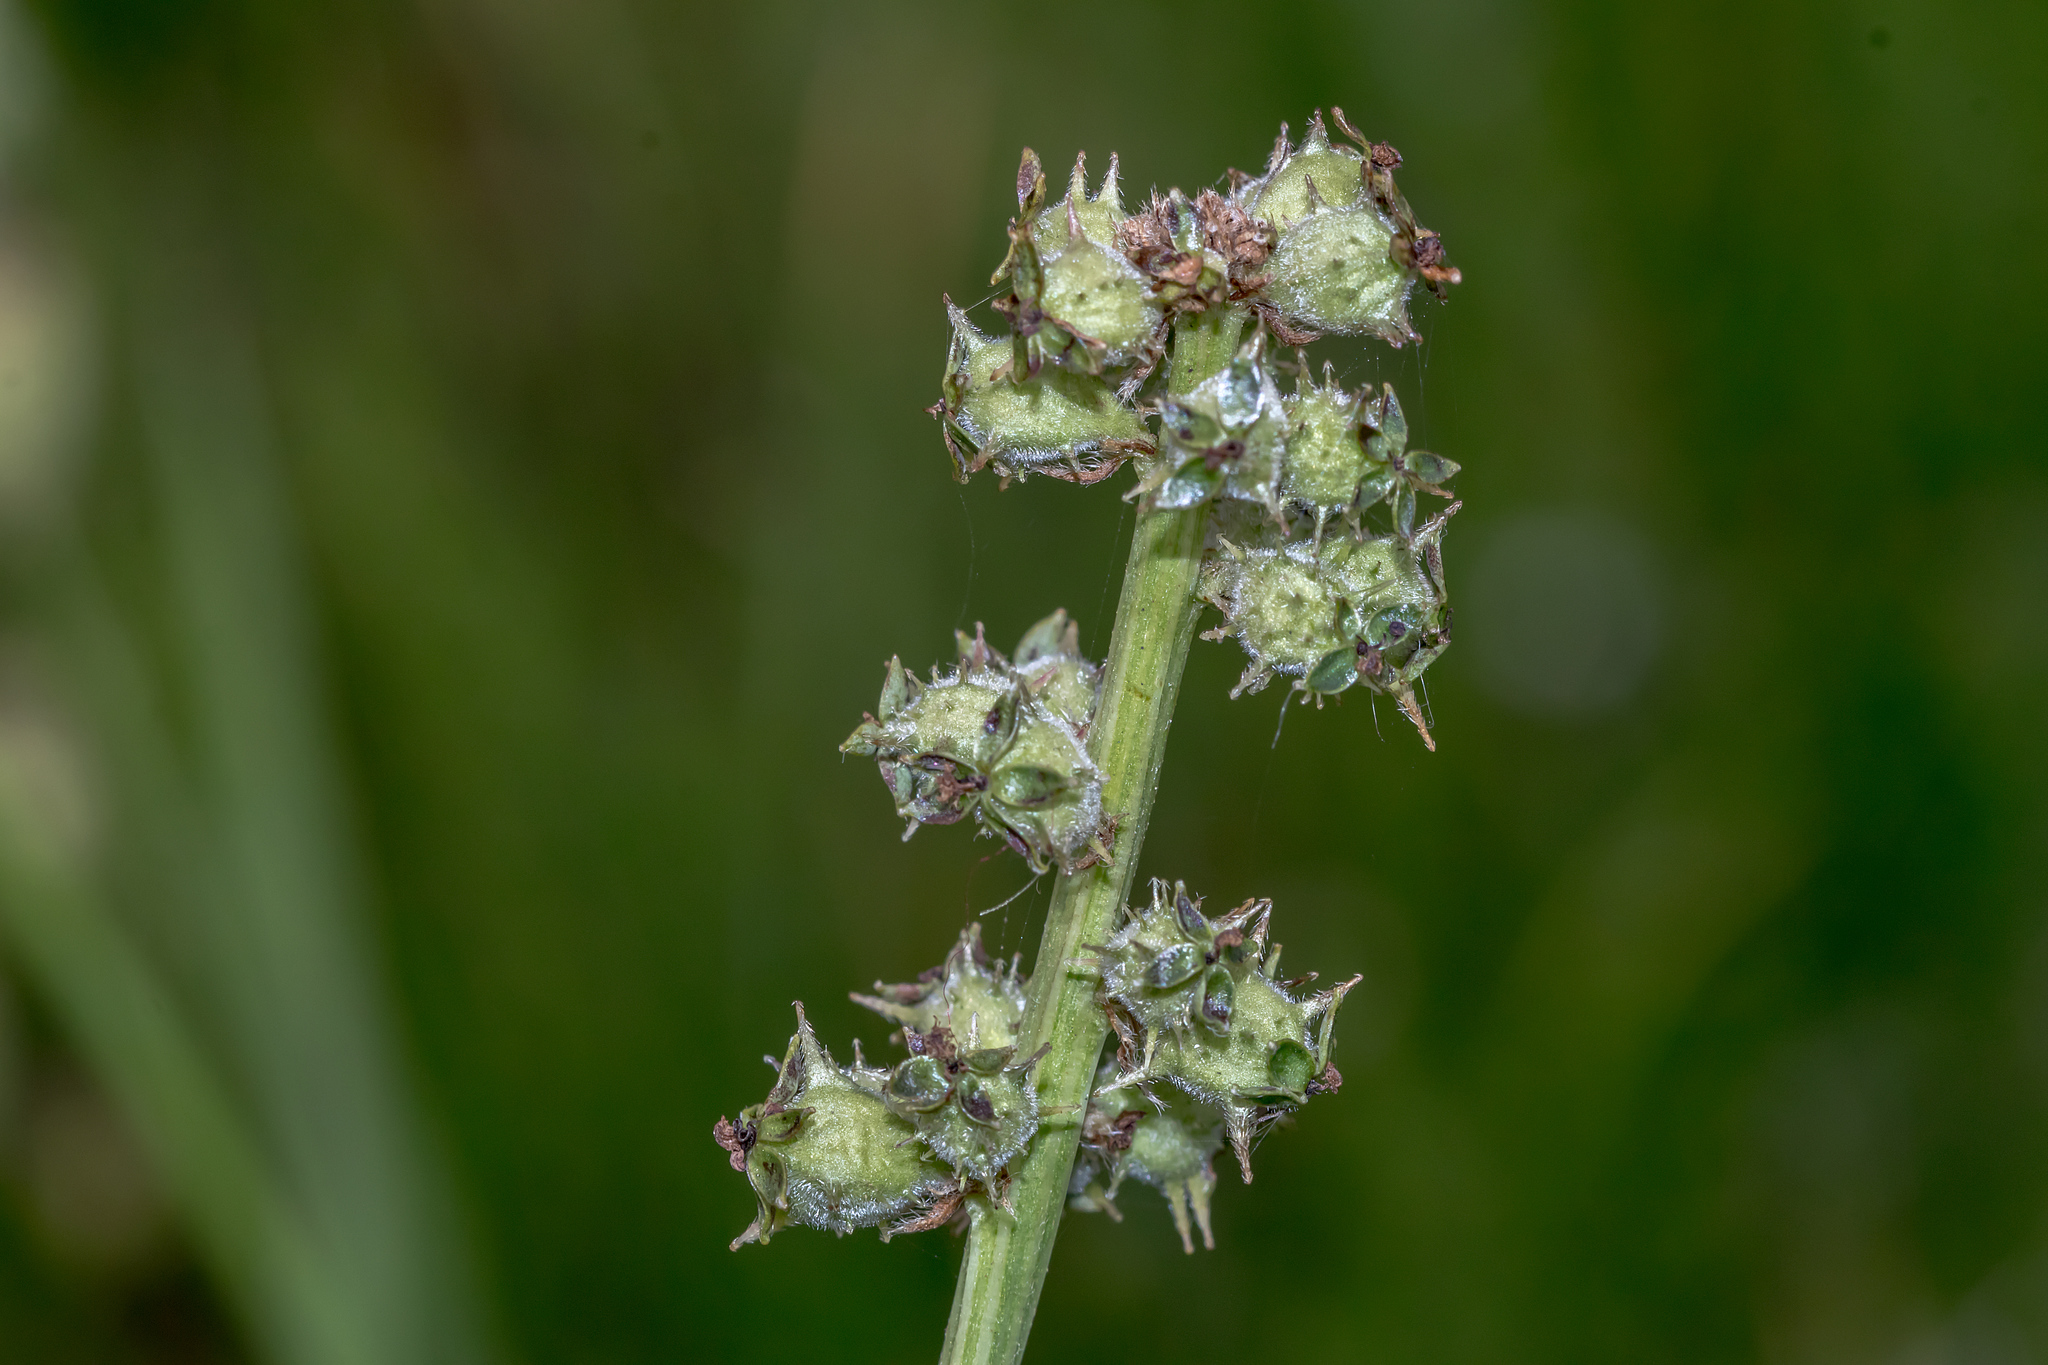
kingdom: Plantae
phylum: Tracheophyta
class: Magnoliopsida
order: Rosales
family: Rosaceae
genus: Acaena
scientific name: Acaena echinata
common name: Sheepbur
